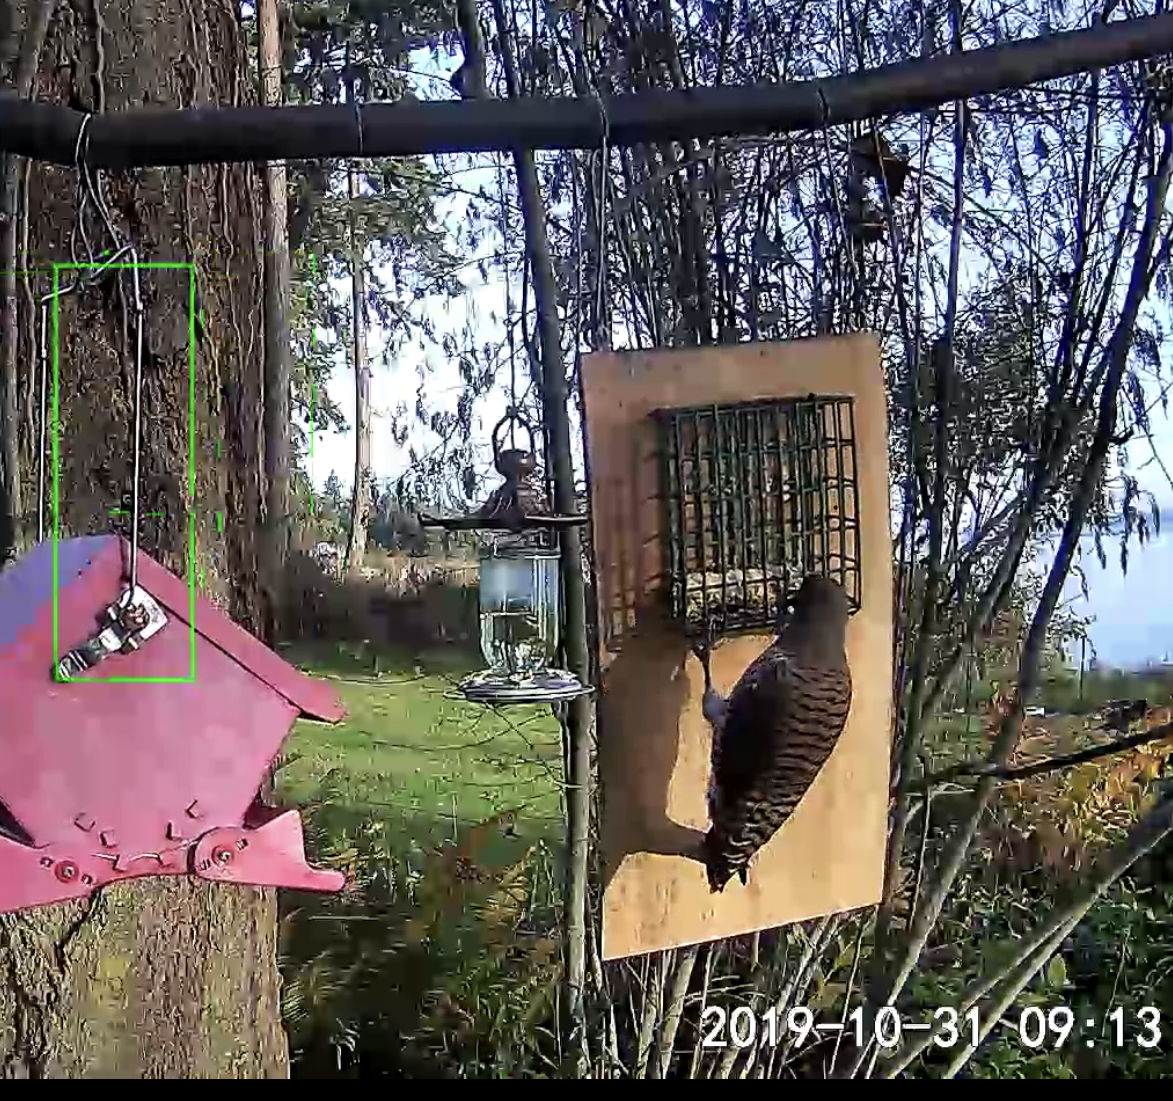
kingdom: Animalia
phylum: Chordata
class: Aves
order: Piciformes
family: Picidae
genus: Colaptes
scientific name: Colaptes auratus
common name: Northern flicker
